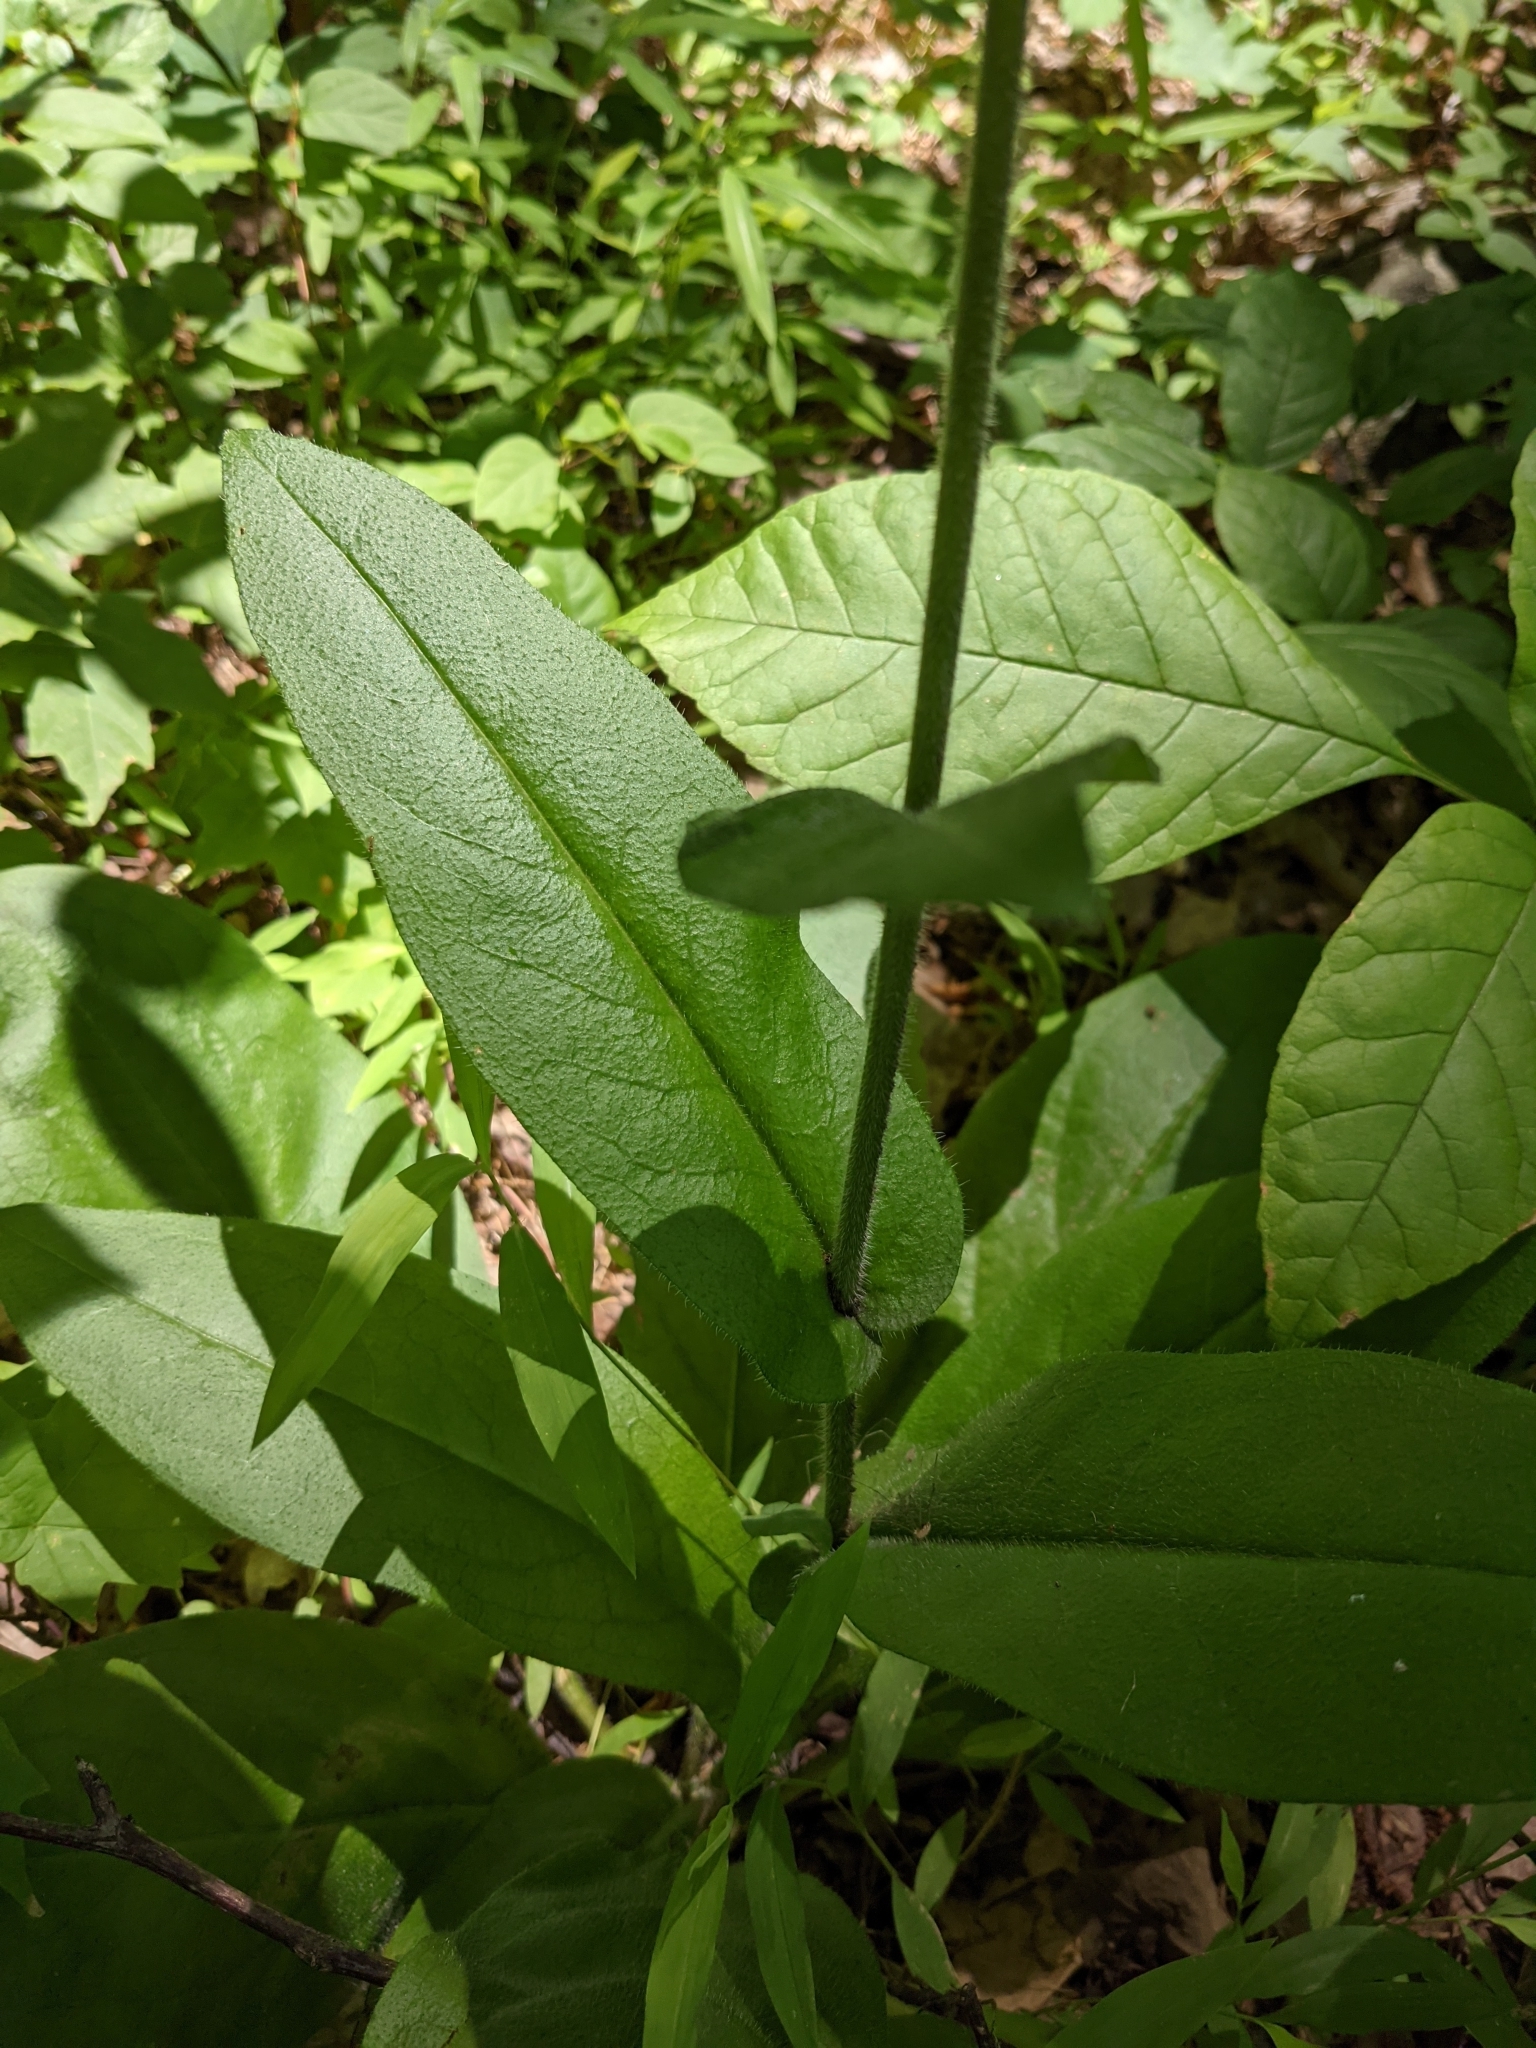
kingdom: Plantae
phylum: Tracheophyta
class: Magnoliopsida
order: Boraginales
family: Boraginaceae
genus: Andersonglossum
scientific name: Andersonglossum virginianum
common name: Wild comfrey
